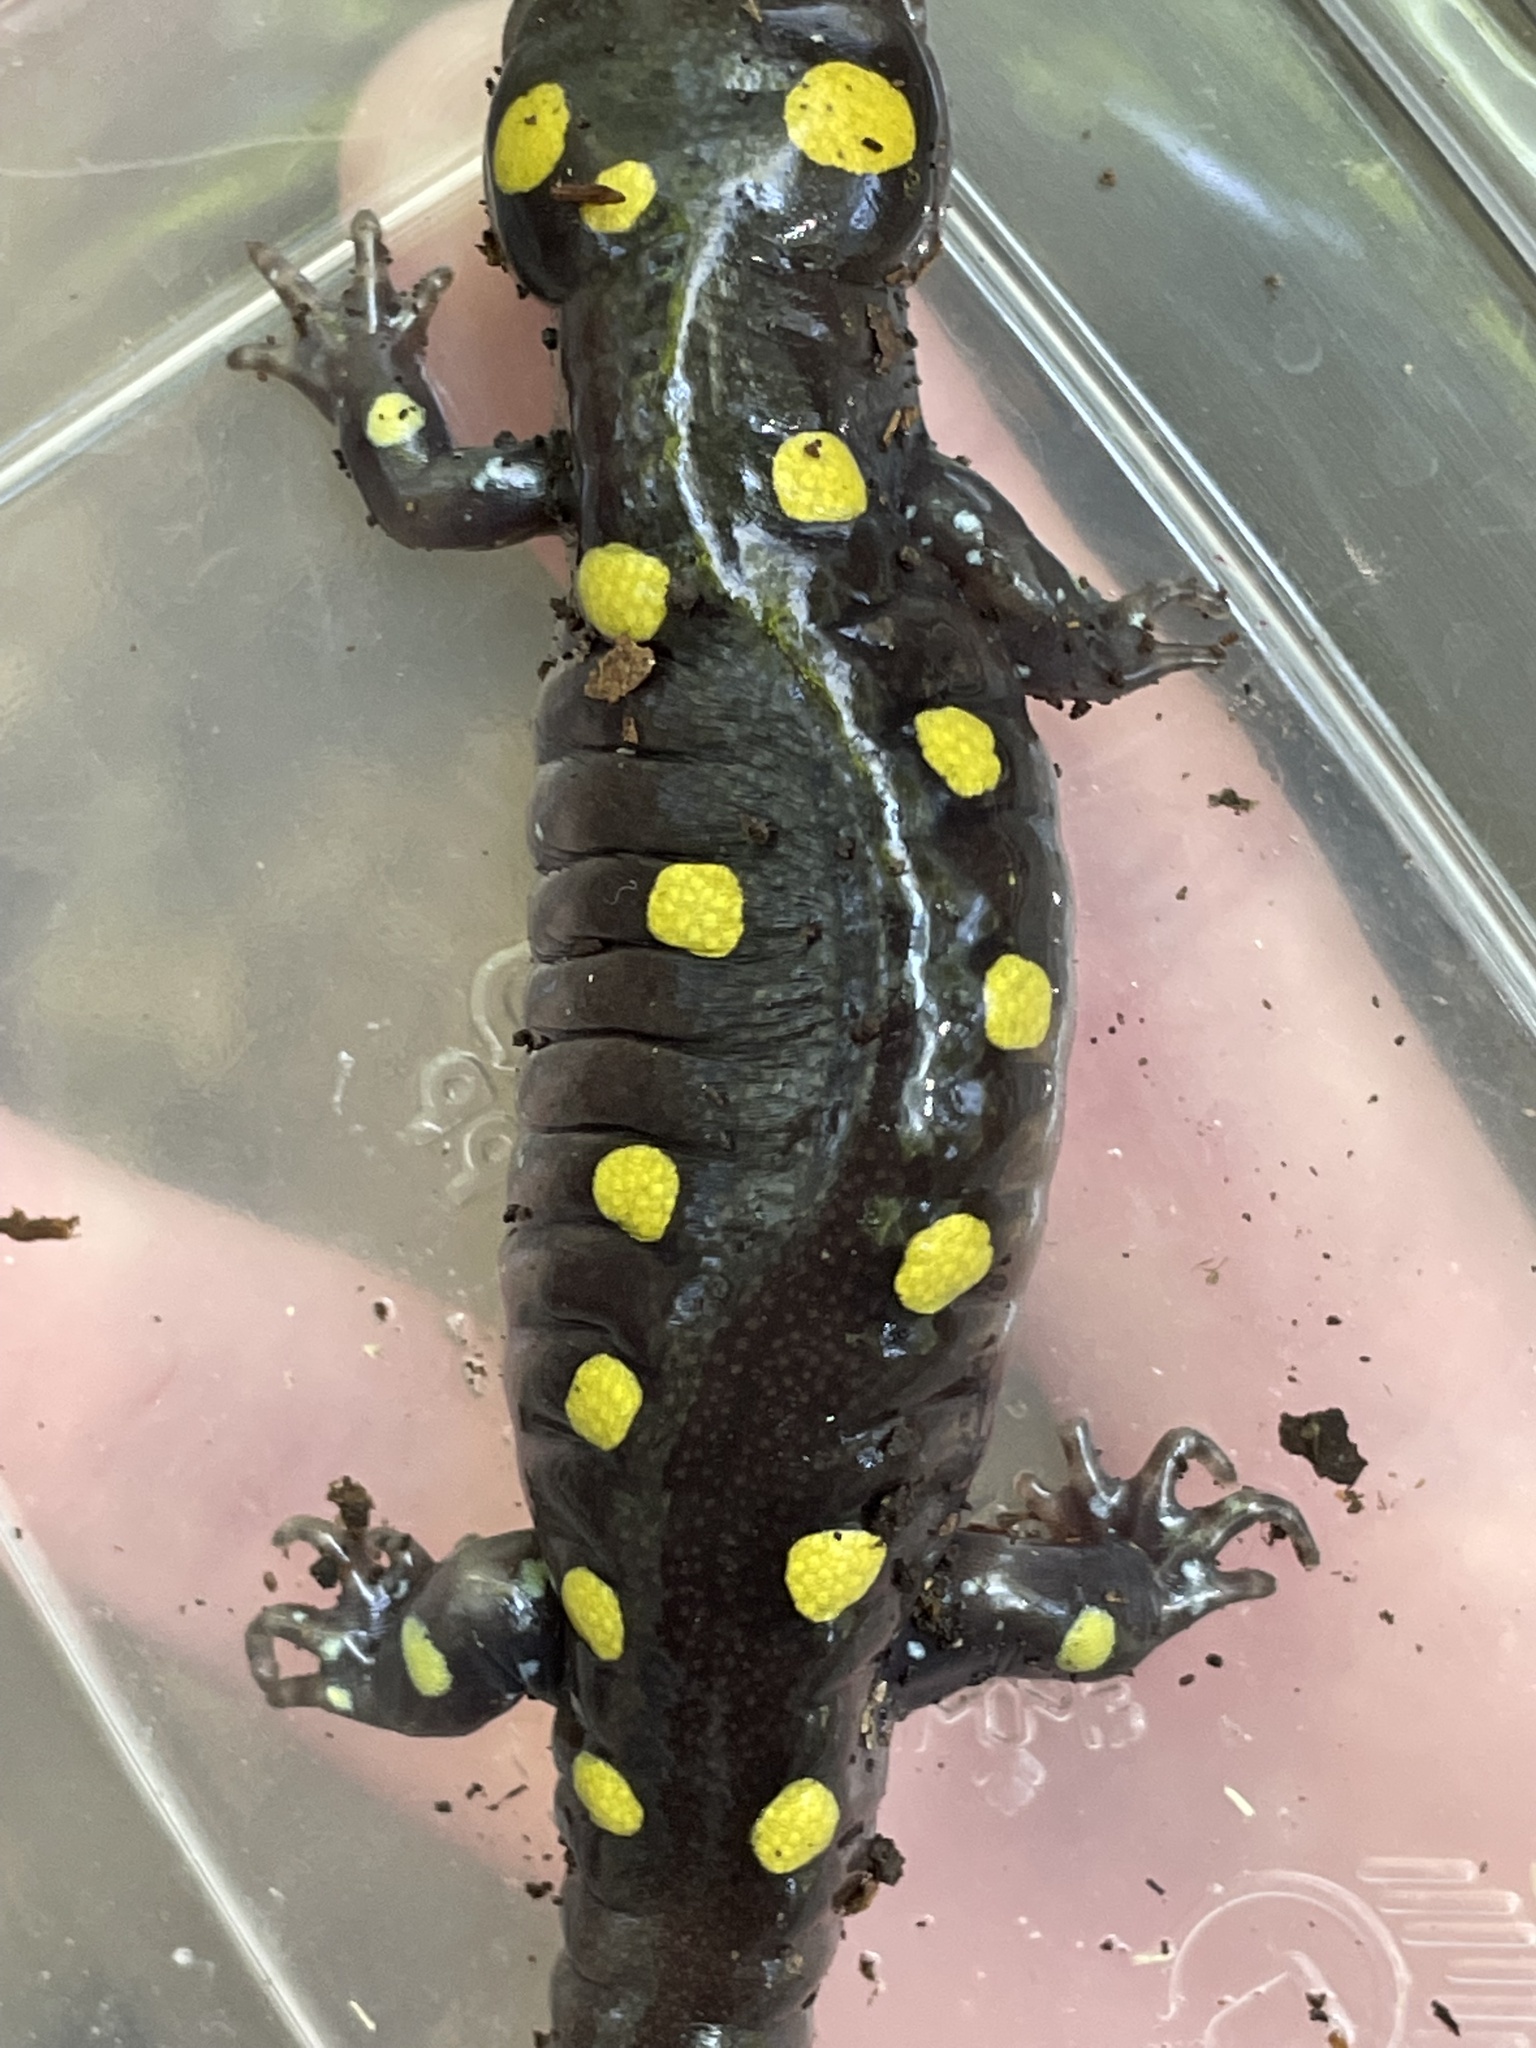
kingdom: Animalia
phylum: Chordata
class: Amphibia
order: Caudata
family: Ambystomatidae
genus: Ambystoma
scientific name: Ambystoma maculatum
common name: Spotted salamander
